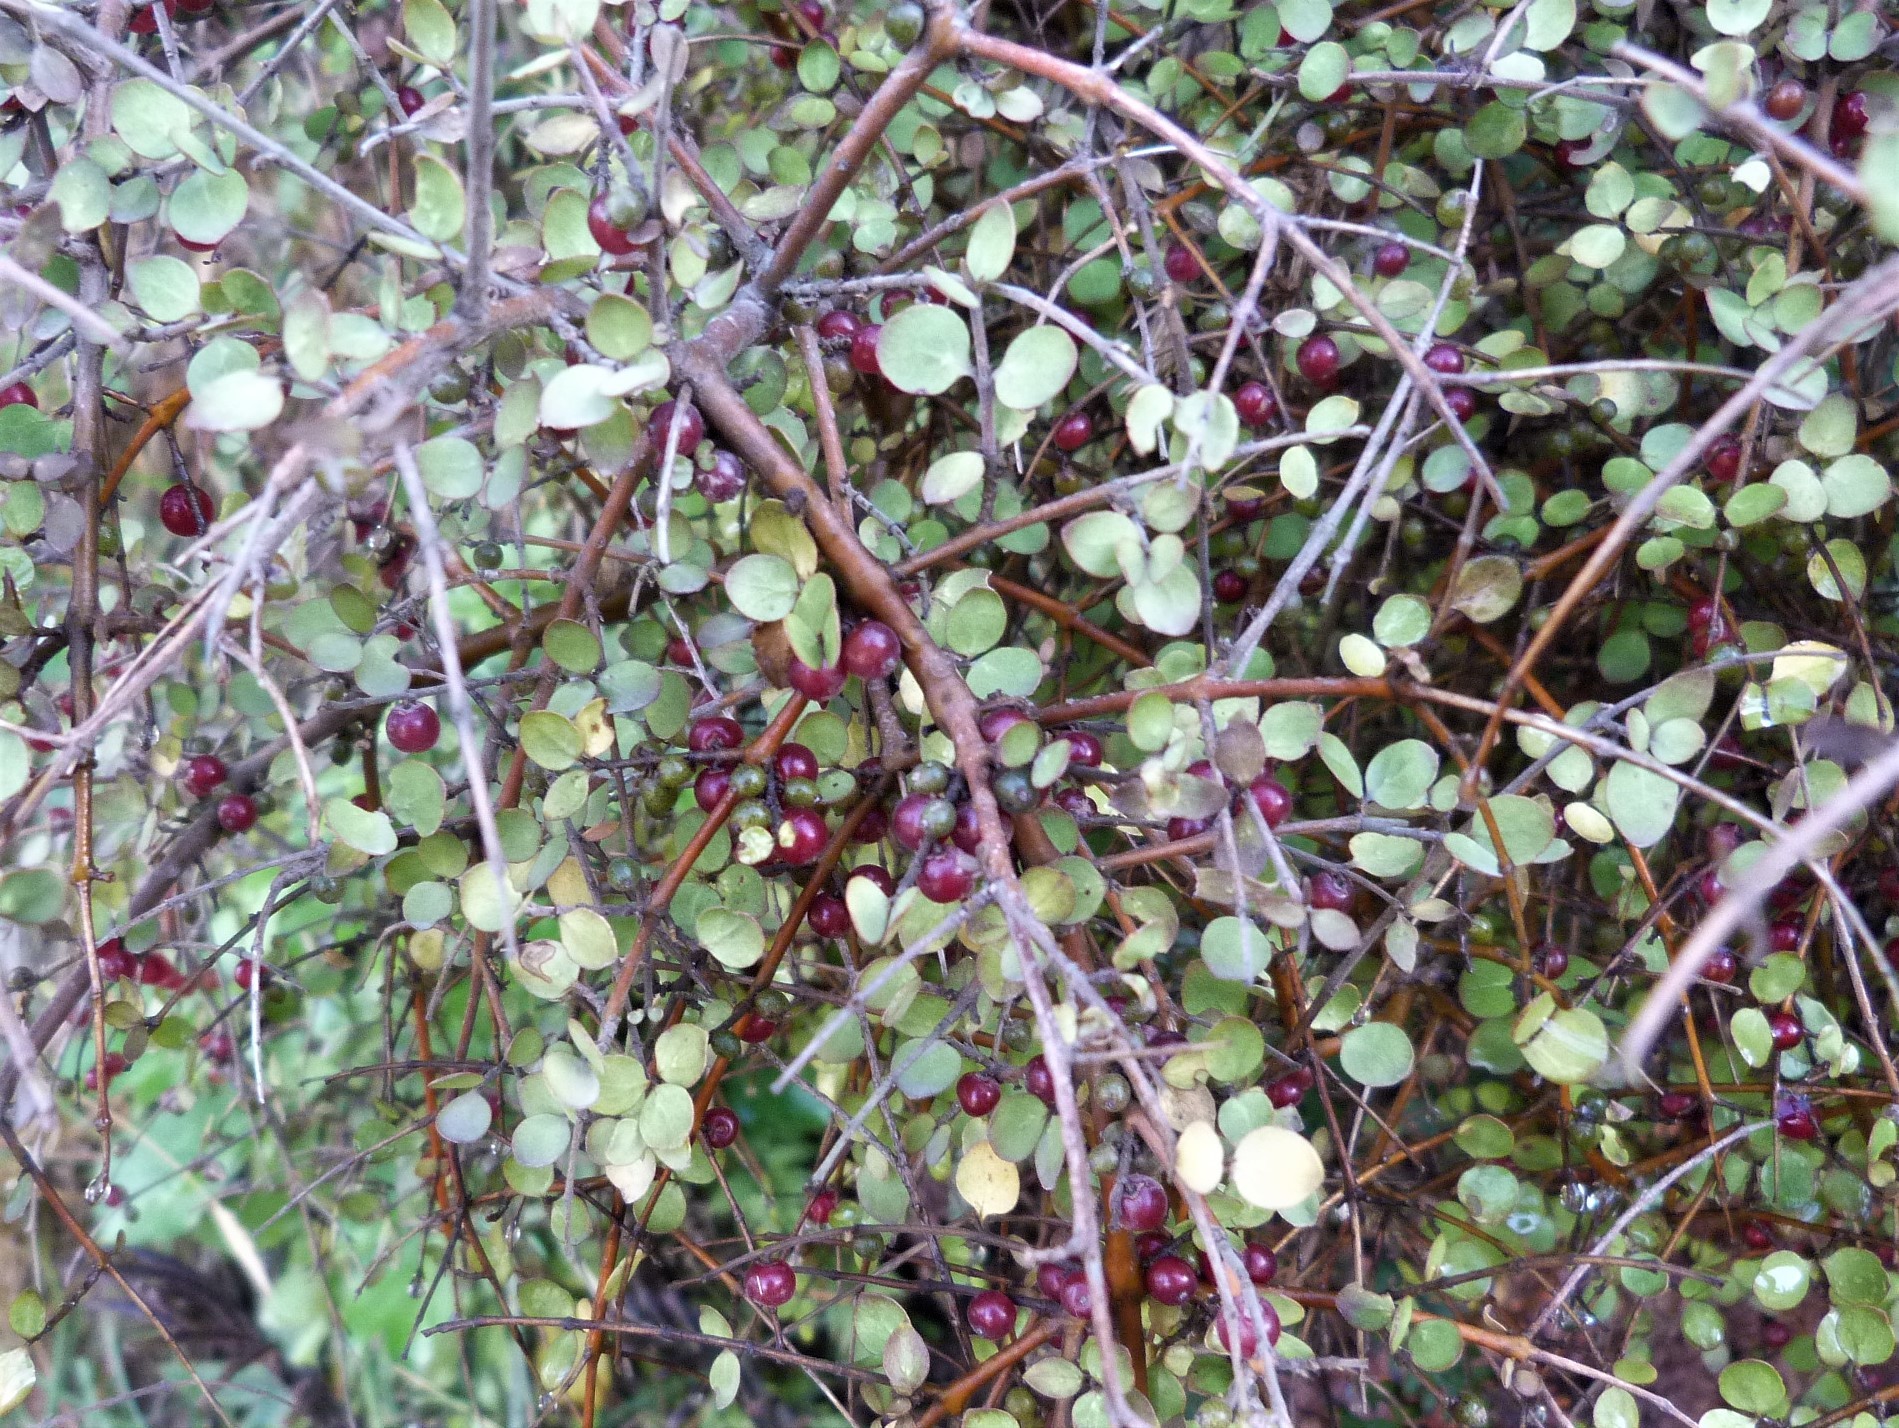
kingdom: Plantae
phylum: Tracheophyta
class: Magnoliopsida
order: Gentianales
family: Rubiaceae
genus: Coprosma
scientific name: Coprosma rhamnoides
